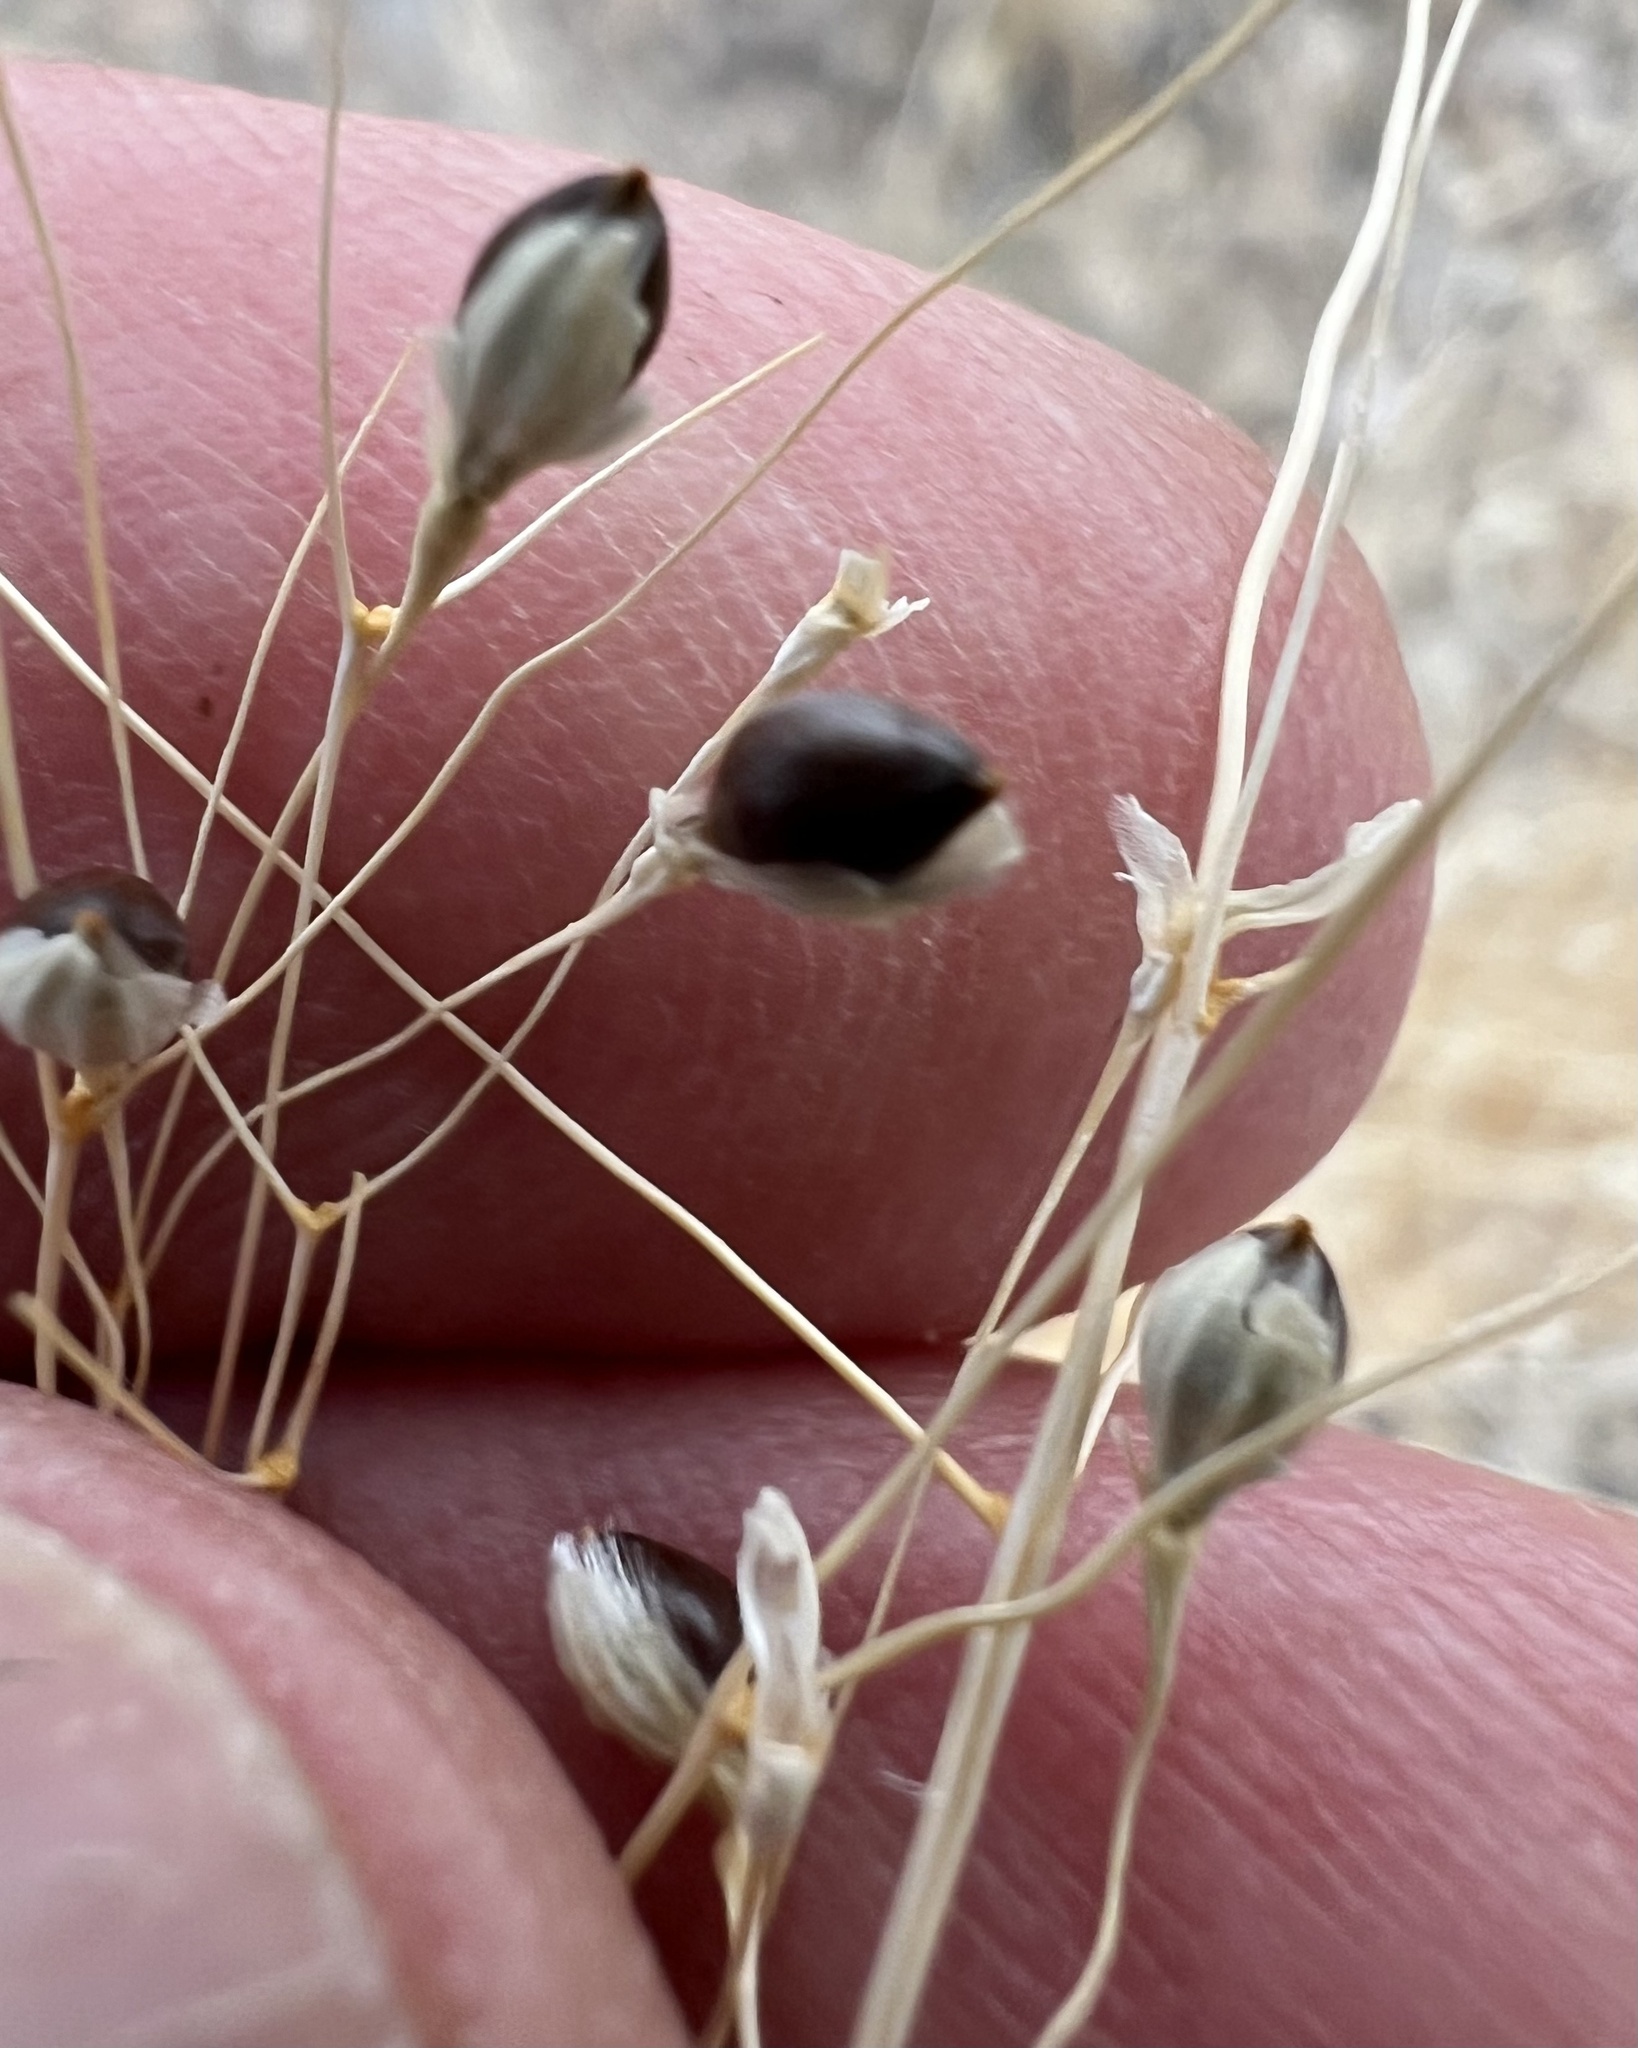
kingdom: Plantae
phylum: Tracheophyta
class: Liliopsida
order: Poales
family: Poaceae
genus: Eriocoma
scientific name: Eriocoma hymenoides
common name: Indian mountain ricegrass
